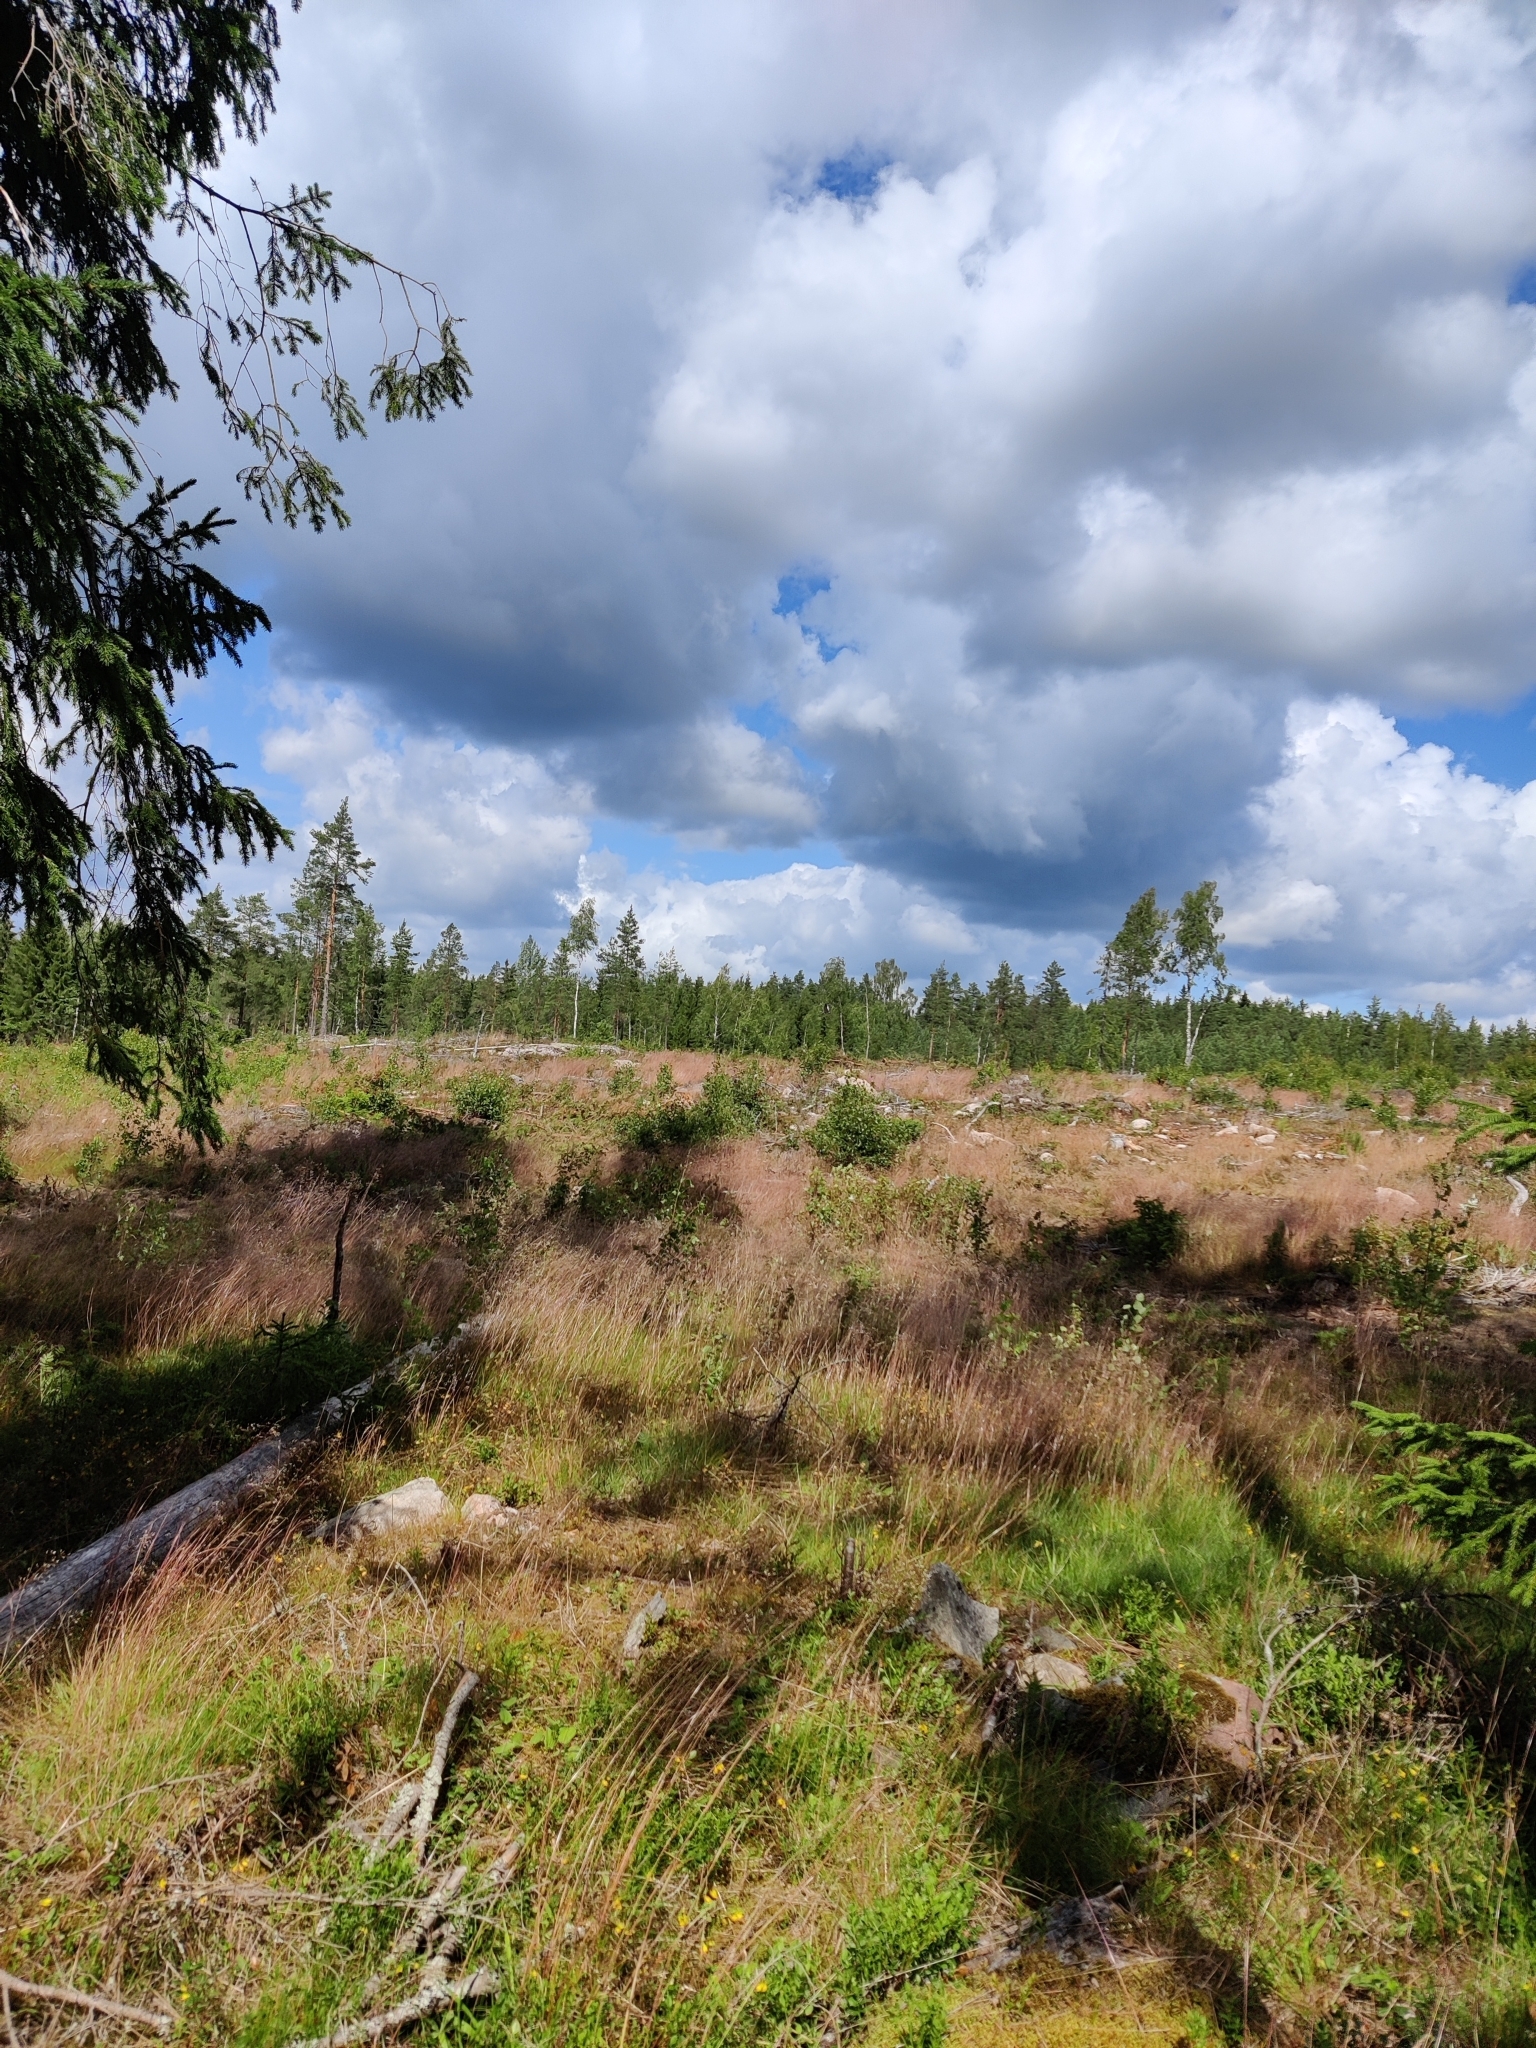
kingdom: Animalia
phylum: Chordata
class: Aves
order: Gruiformes
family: Gruidae
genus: Grus
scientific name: Grus grus
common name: Common crane
